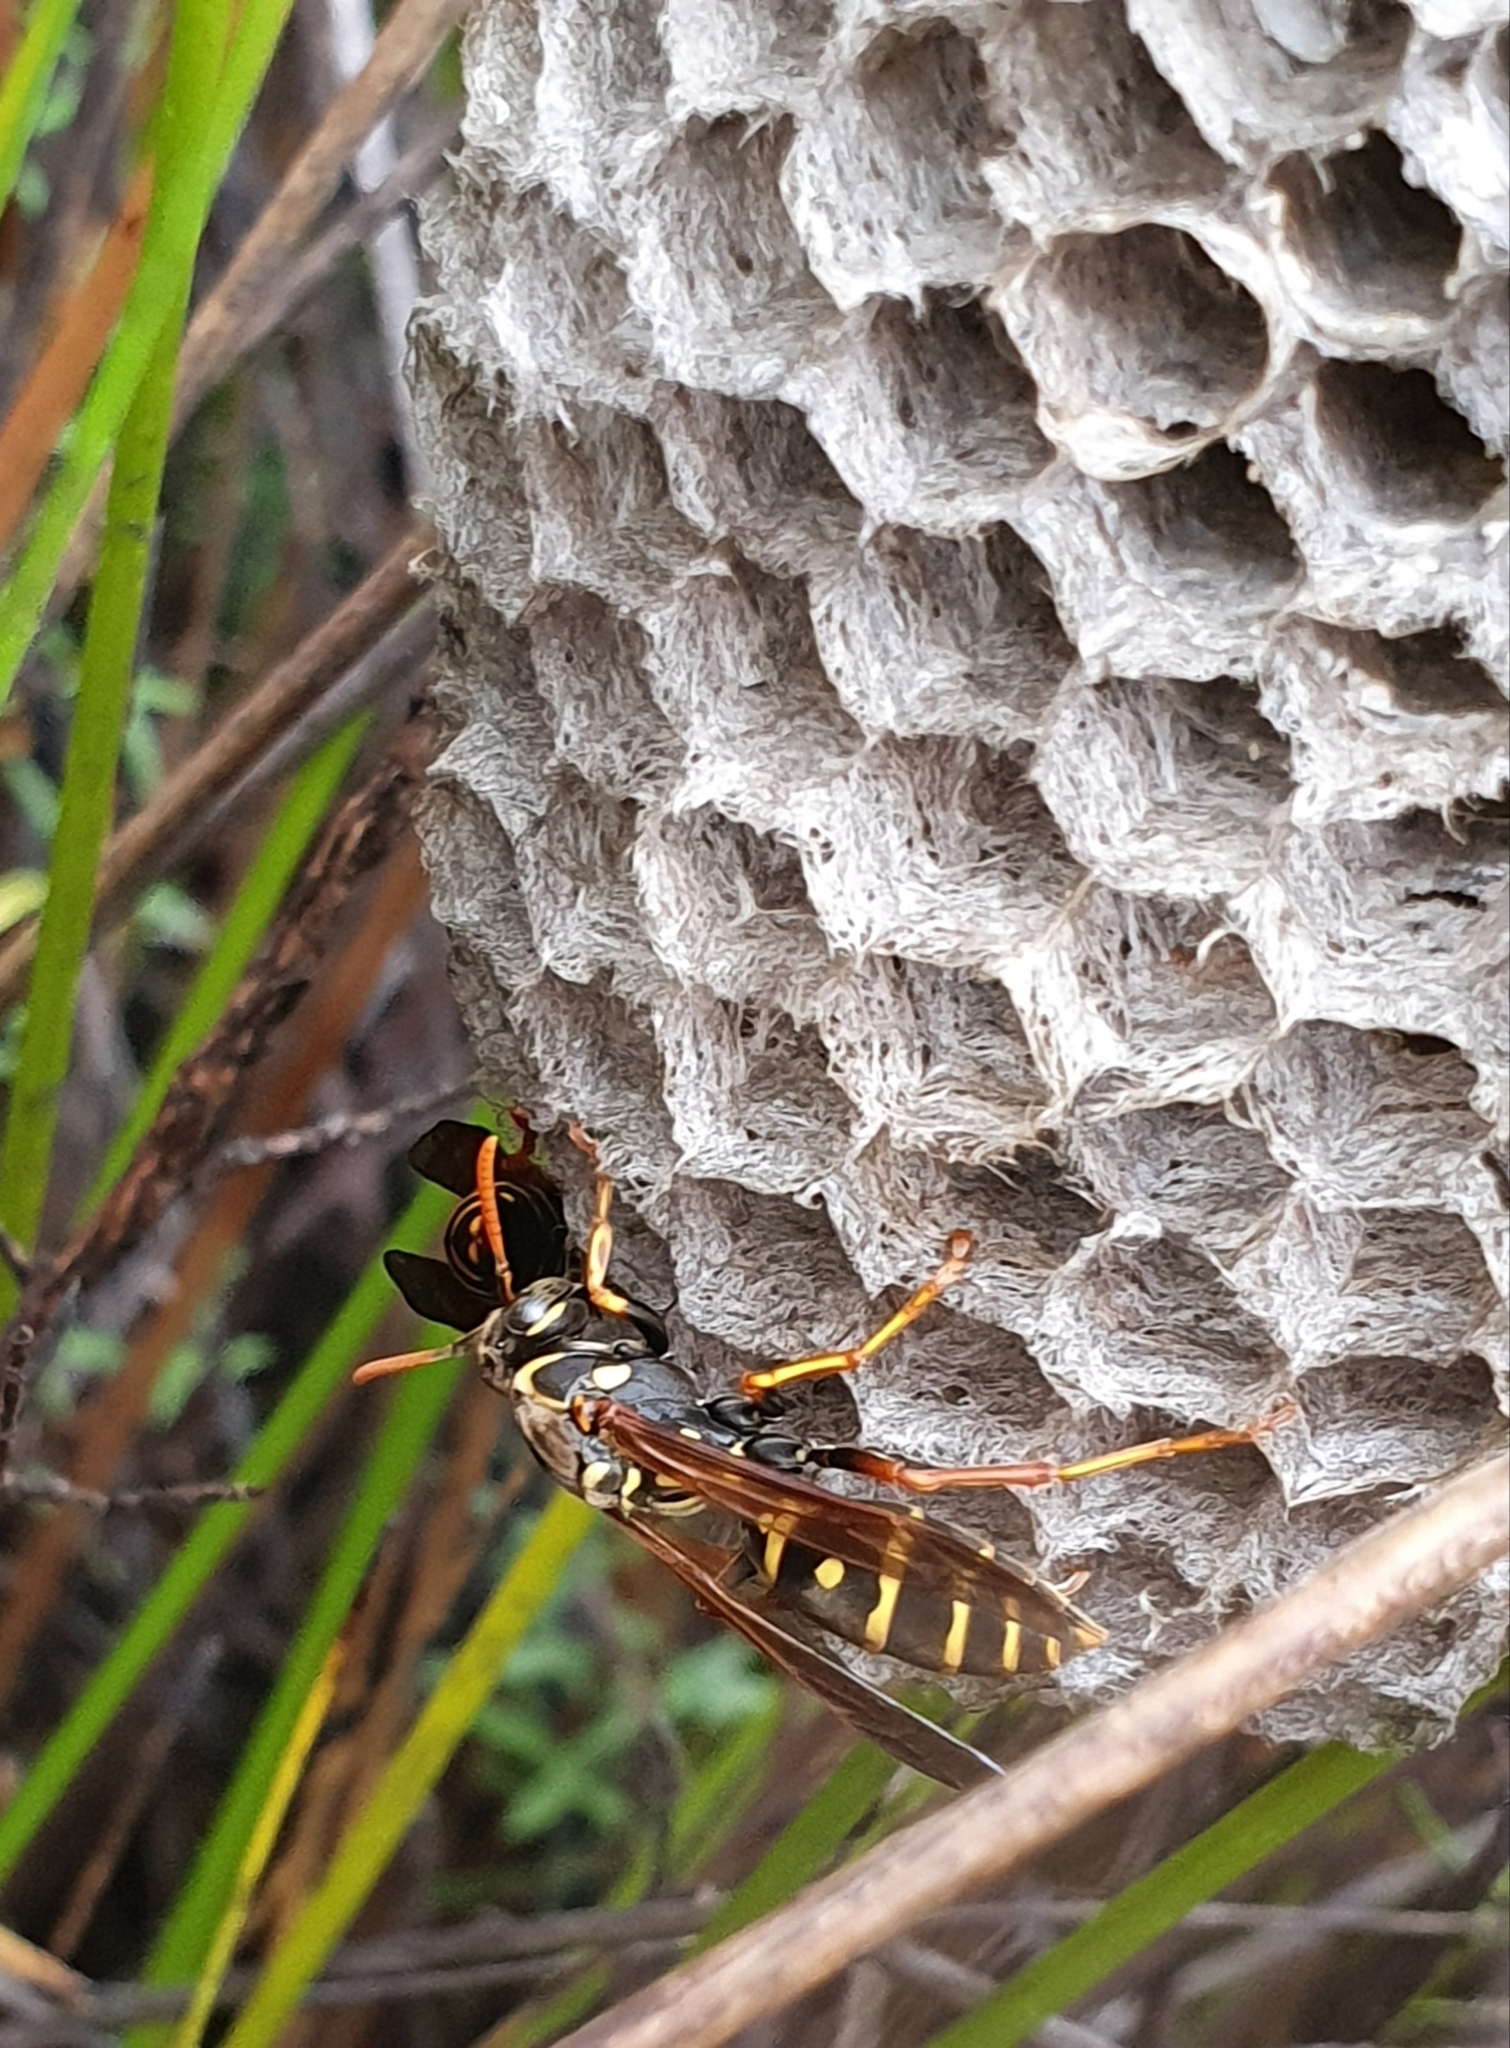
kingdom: Animalia
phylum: Arthropoda
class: Insecta
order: Hymenoptera
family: Eumenidae
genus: Polistes
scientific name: Polistes chinensis
